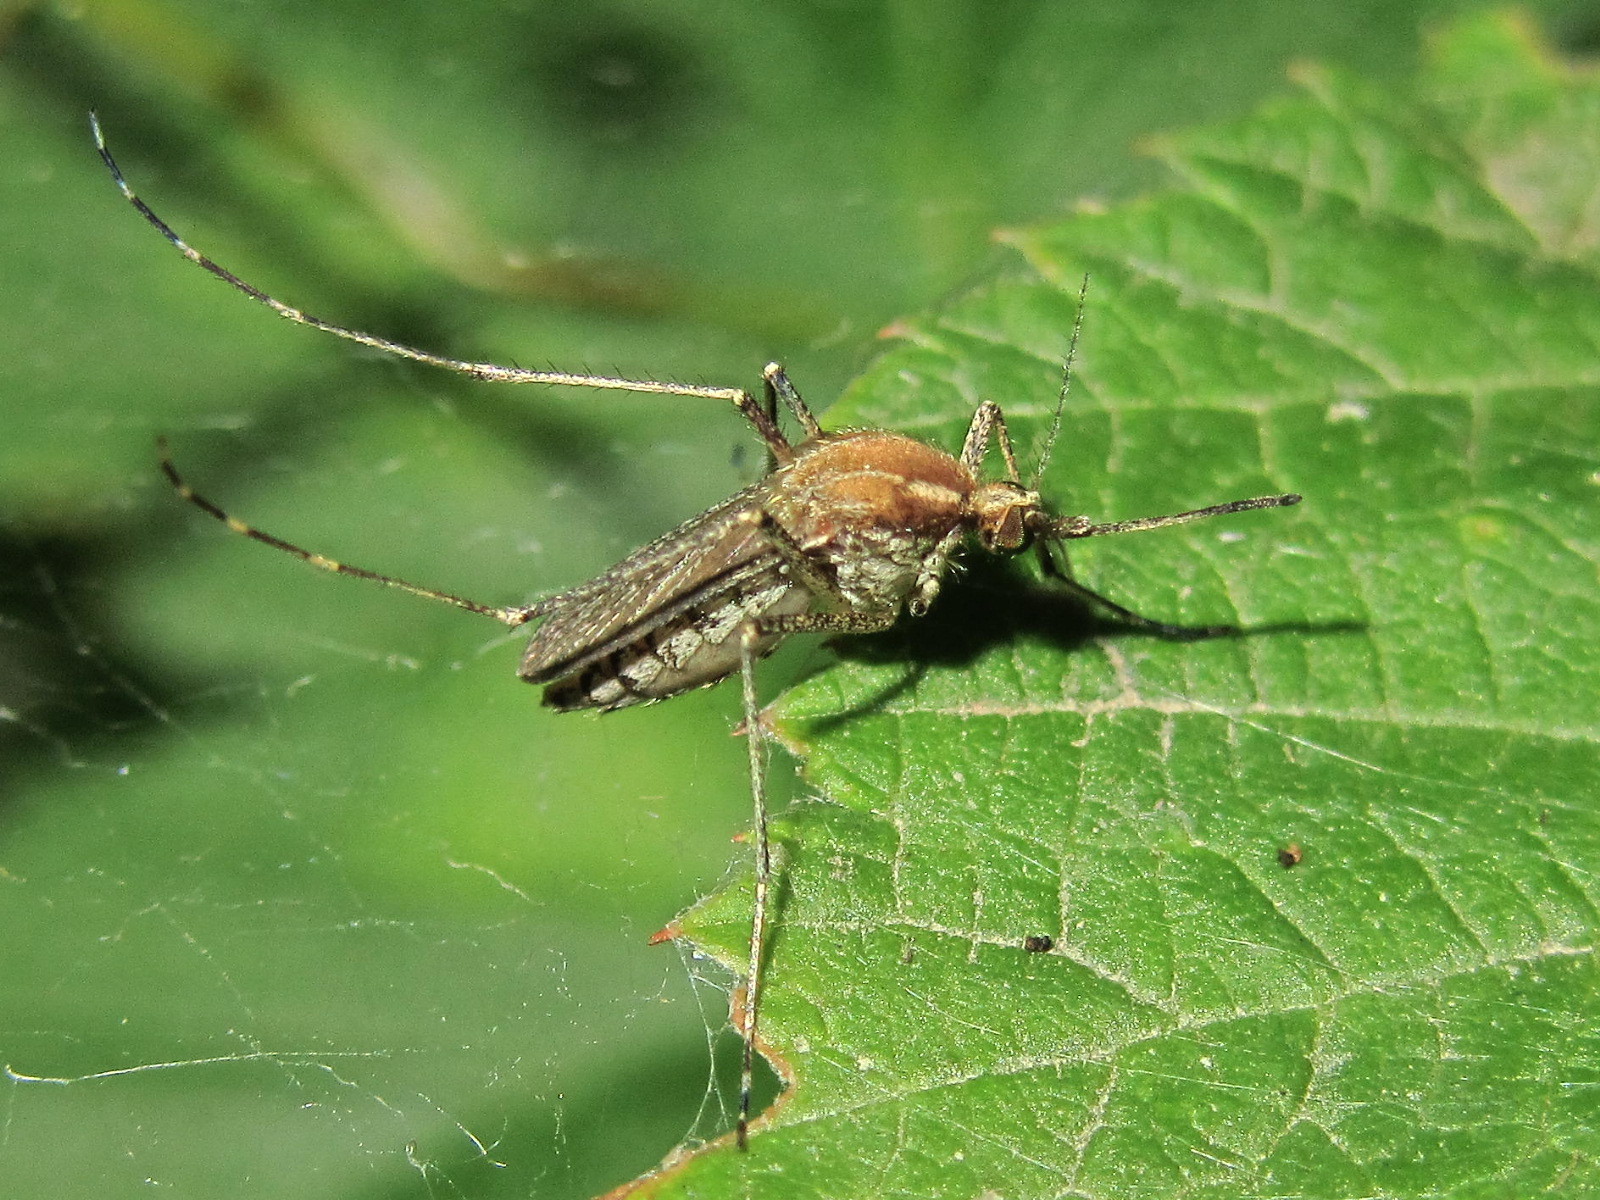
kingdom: Animalia
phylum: Arthropoda
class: Insecta
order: Diptera
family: Culicidae
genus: Aedes
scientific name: Aedes caspius
